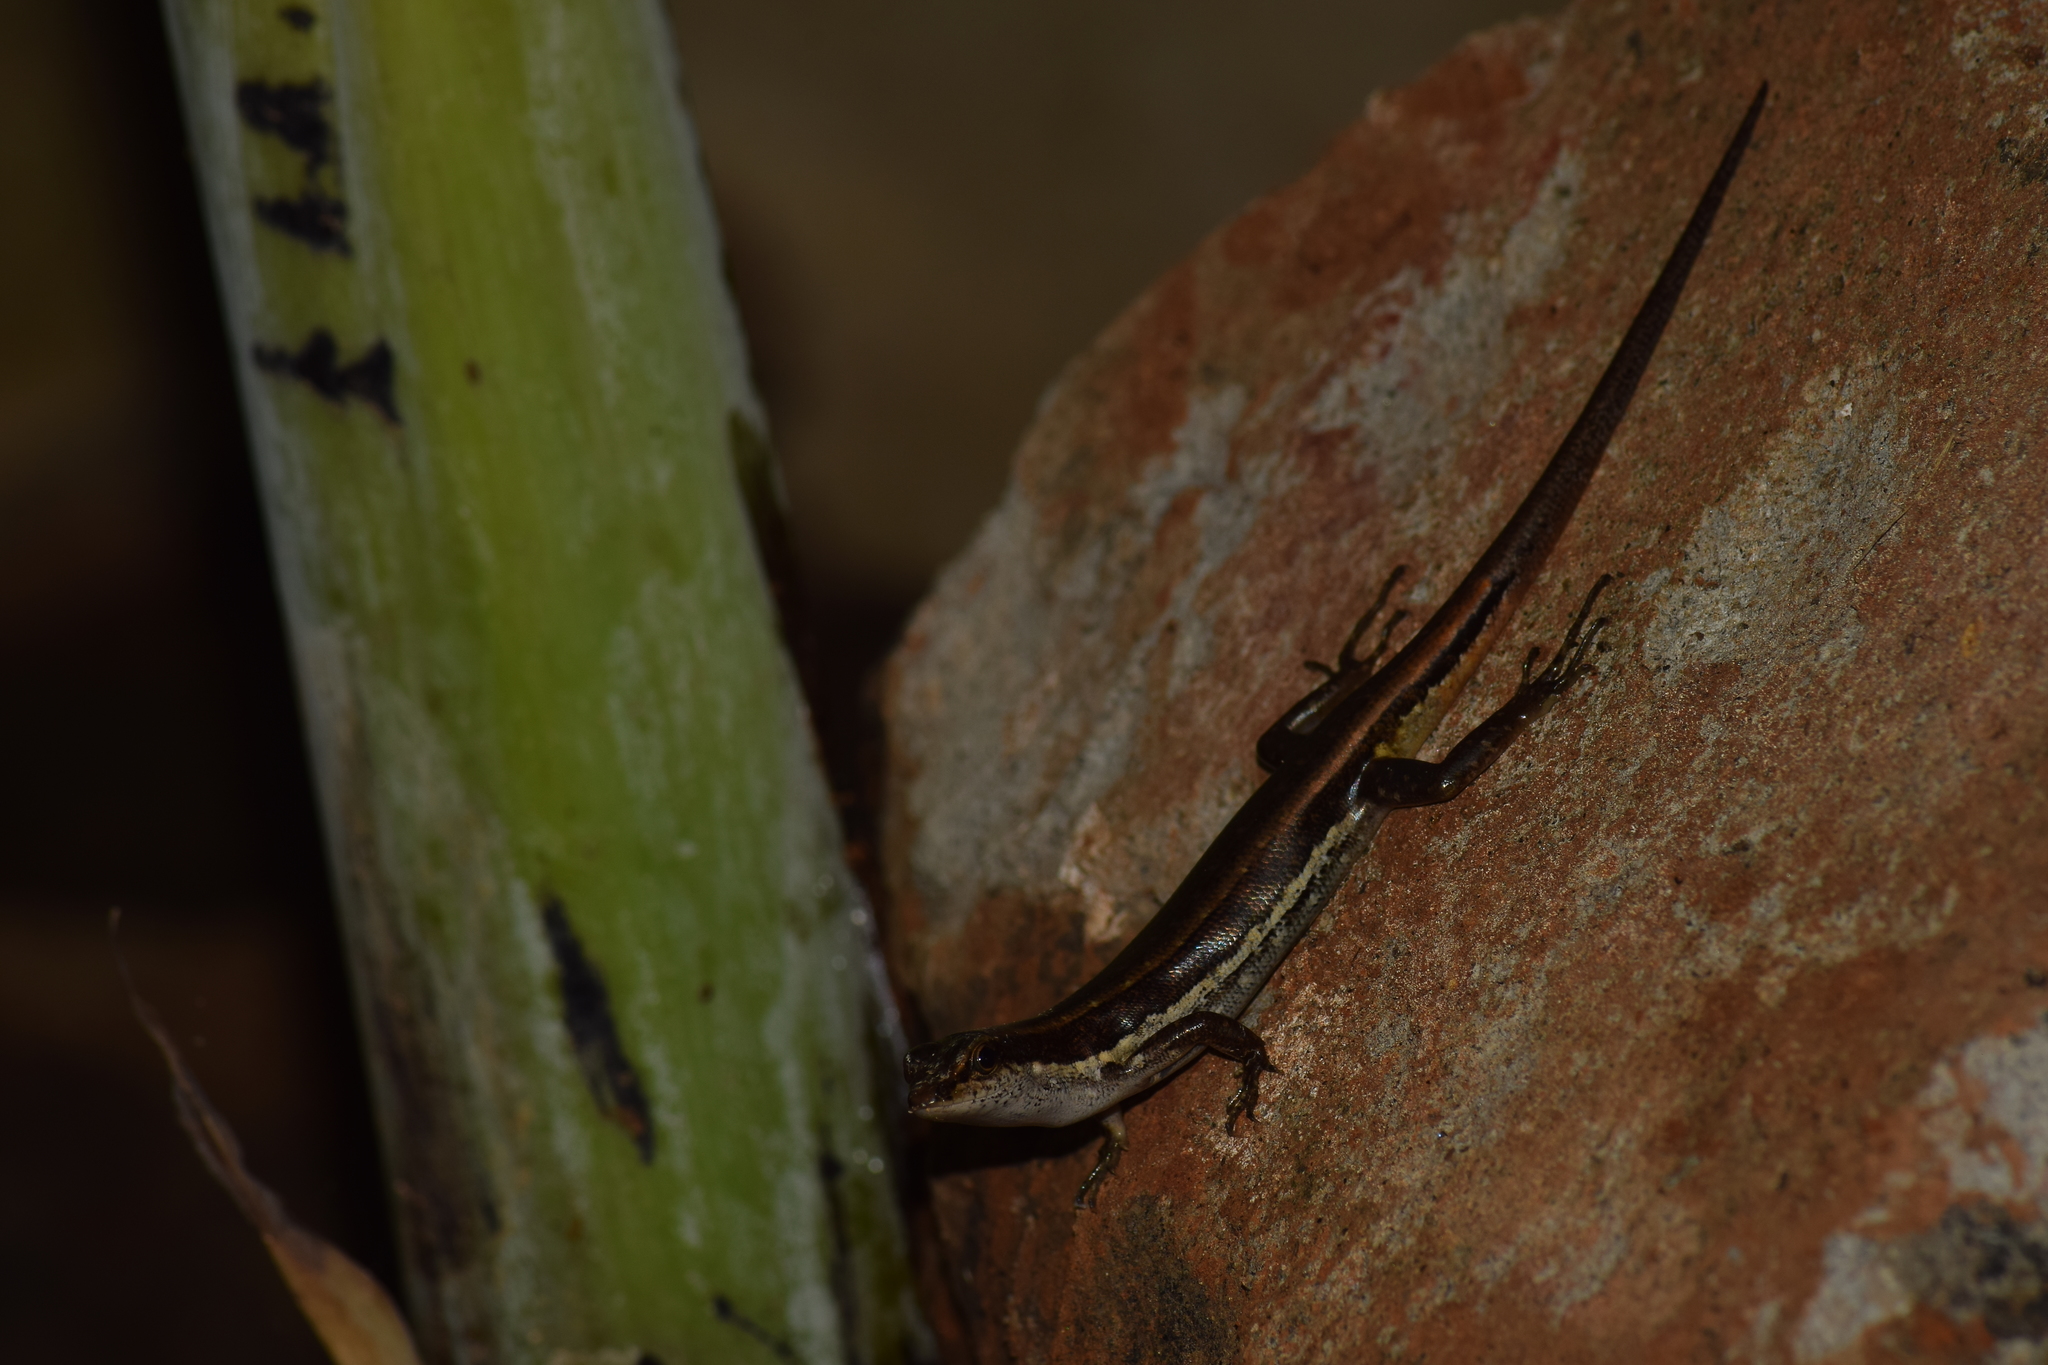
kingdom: Animalia
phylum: Chordata
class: Squamata
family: Scincidae
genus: Sphenomorphus
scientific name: Sphenomorphus dussumieri
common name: Dussumier's forest skink
